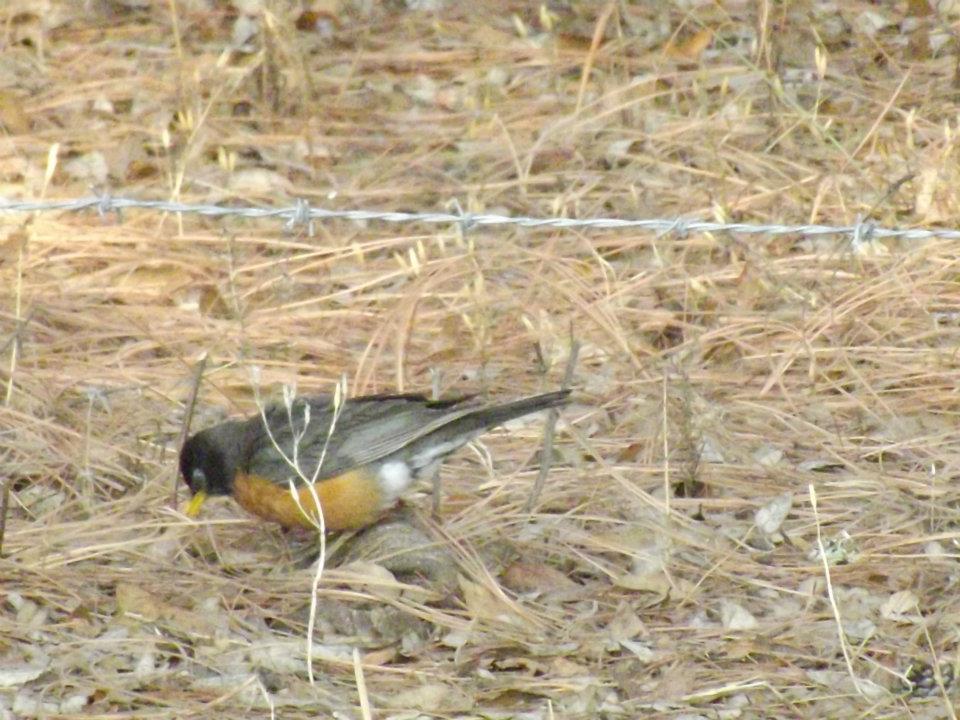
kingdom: Animalia
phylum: Chordata
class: Aves
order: Passeriformes
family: Turdidae
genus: Turdus
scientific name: Turdus migratorius
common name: American robin
